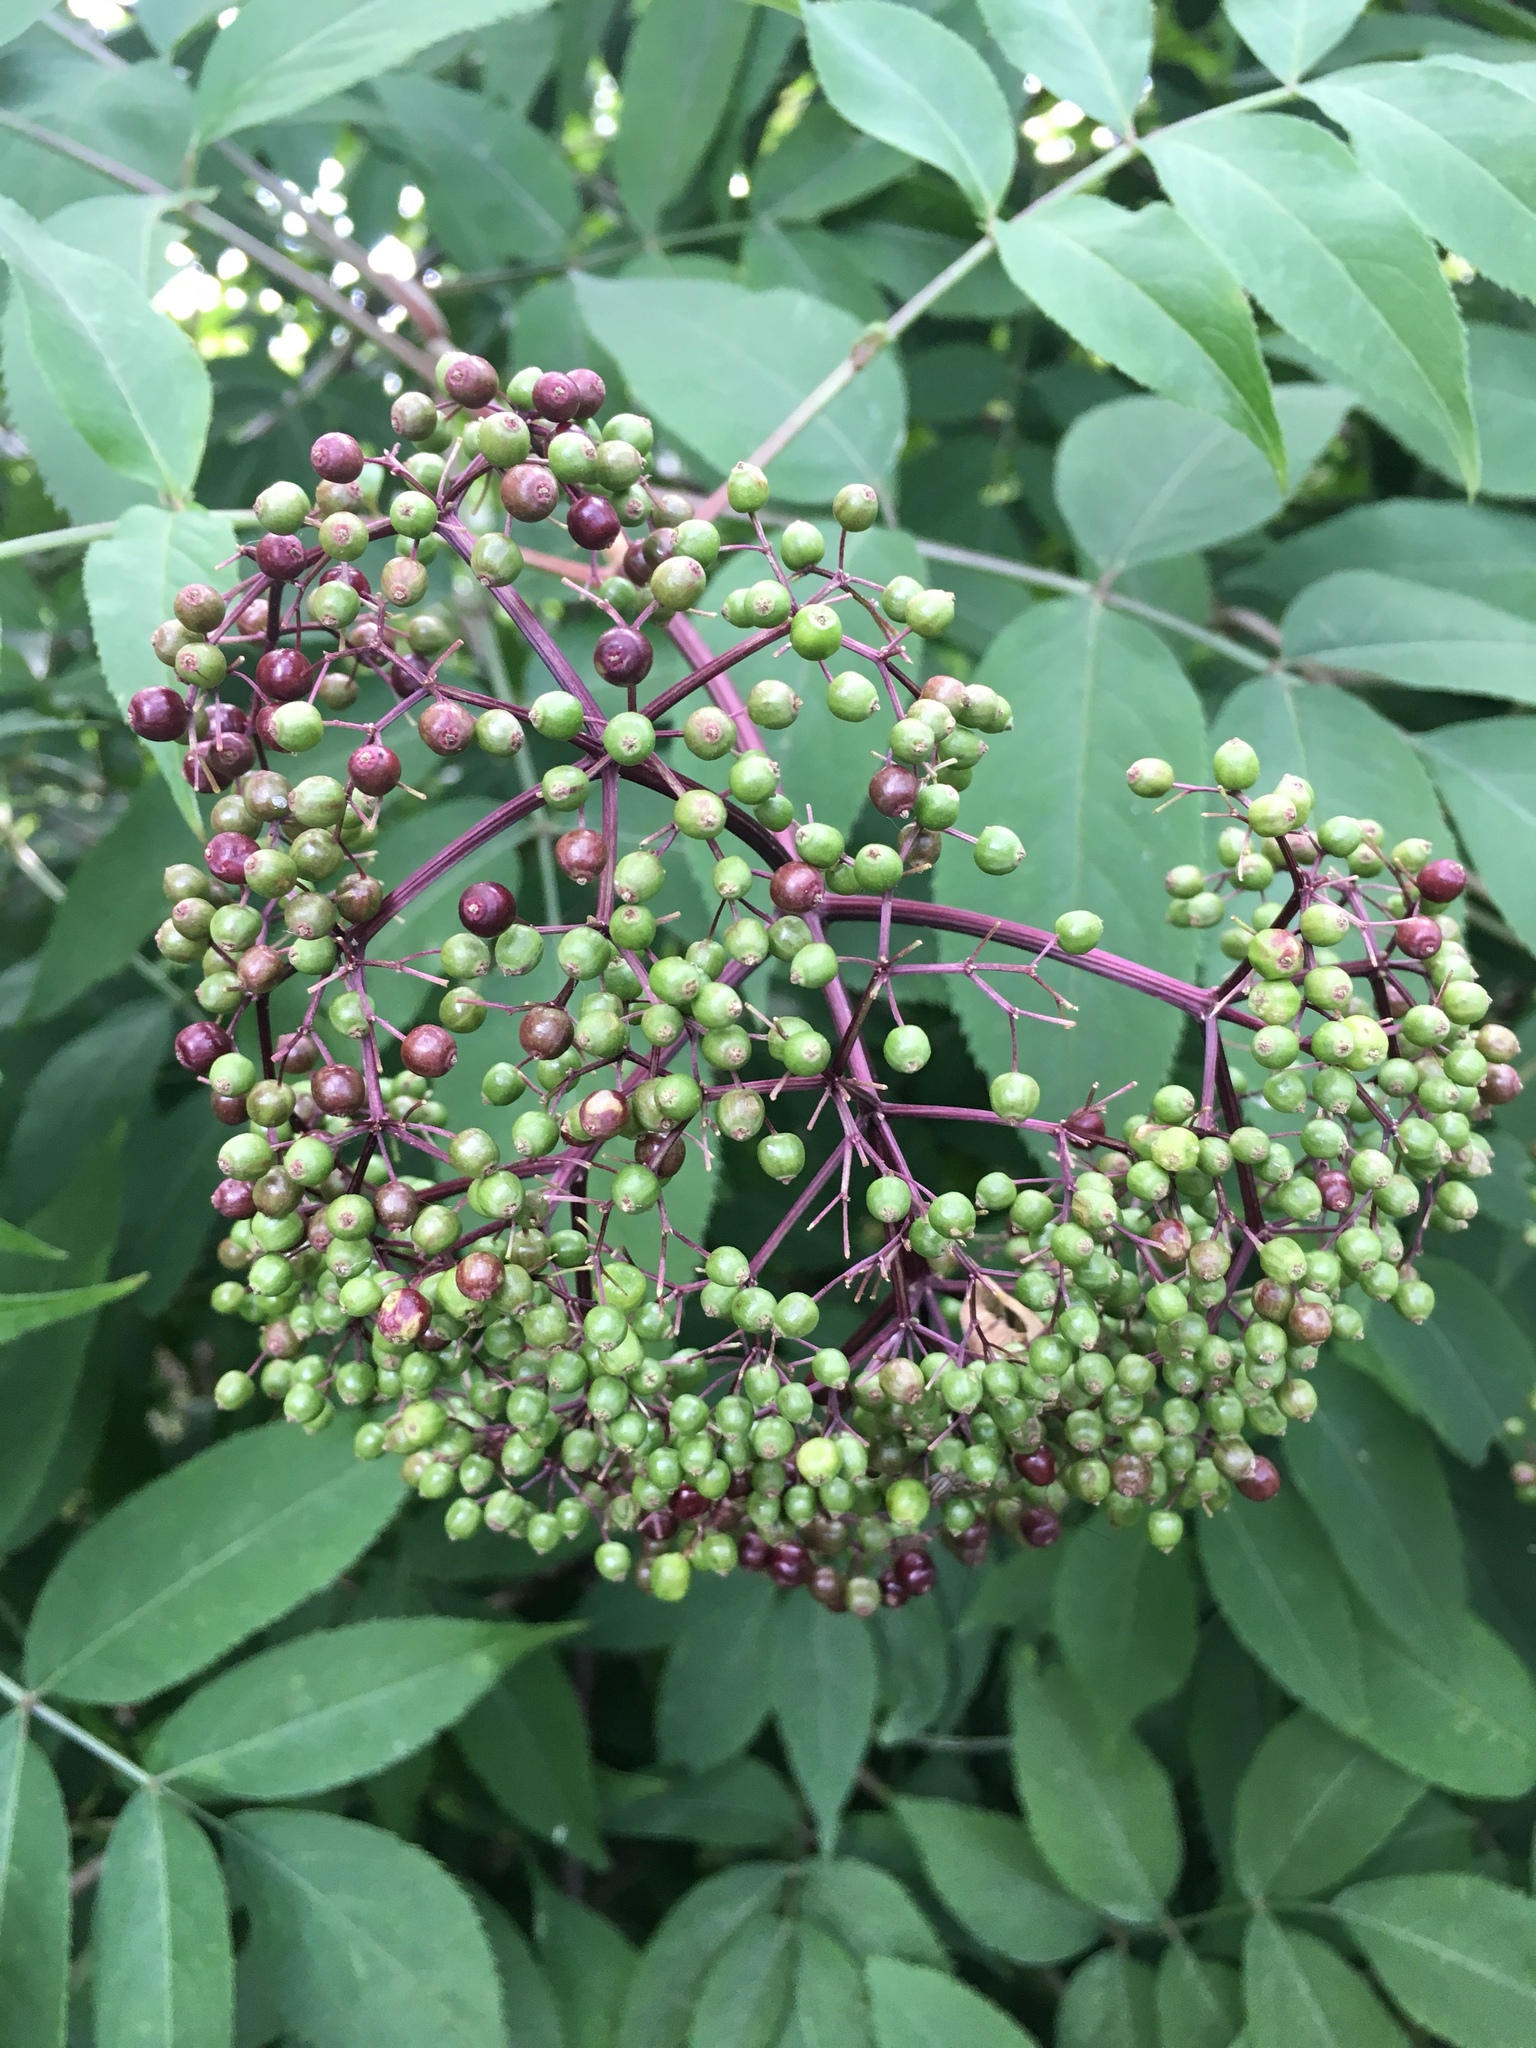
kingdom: Plantae
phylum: Tracheophyta
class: Magnoliopsida
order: Dipsacales
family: Viburnaceae
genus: Sambucus
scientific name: Sambucus canadensis
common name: American elder
